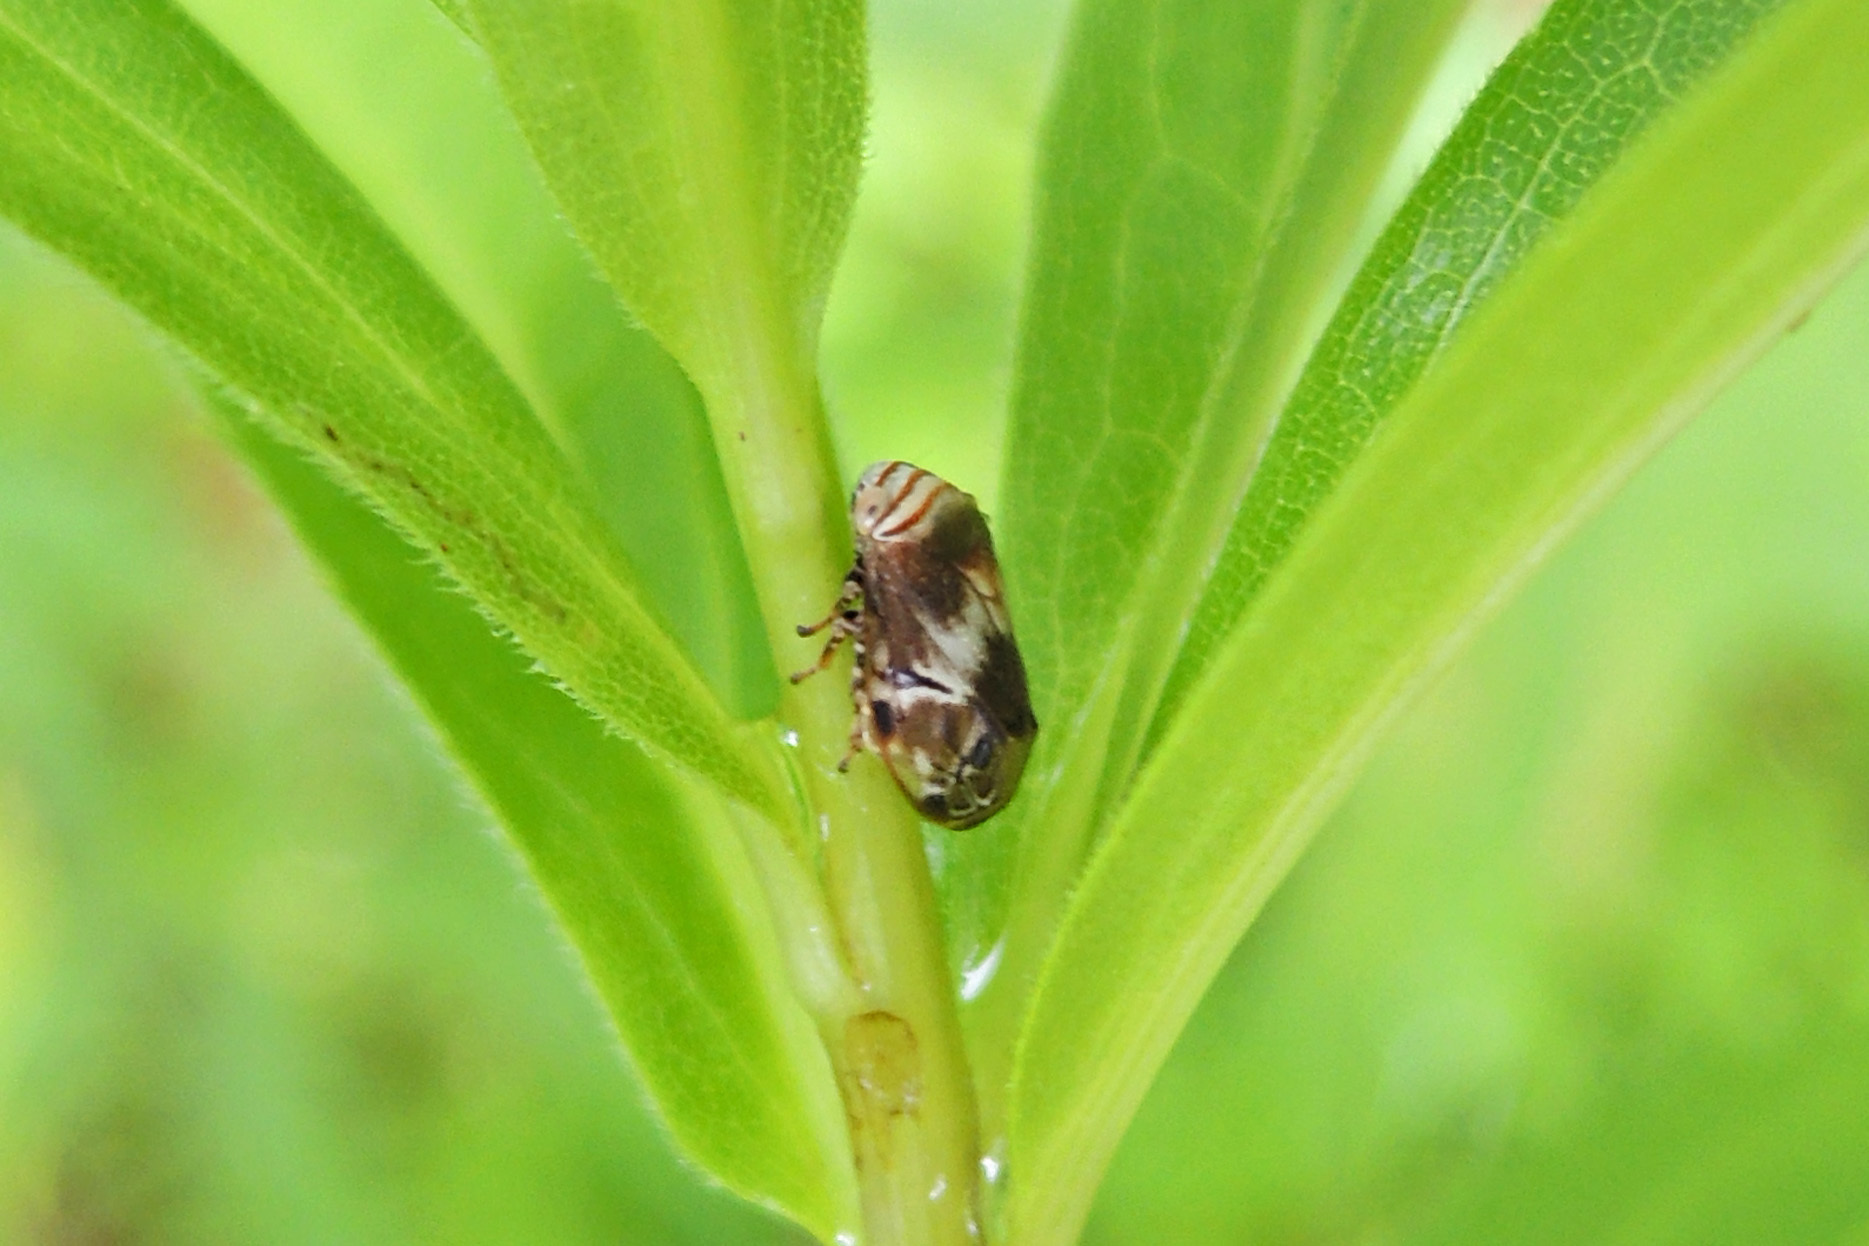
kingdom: Animalia
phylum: Arthropoda
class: Insecta
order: Hemiptera
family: Clastopteridae
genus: Clastoptera
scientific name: Clastoptera obtusa
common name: Alder spittlebug
